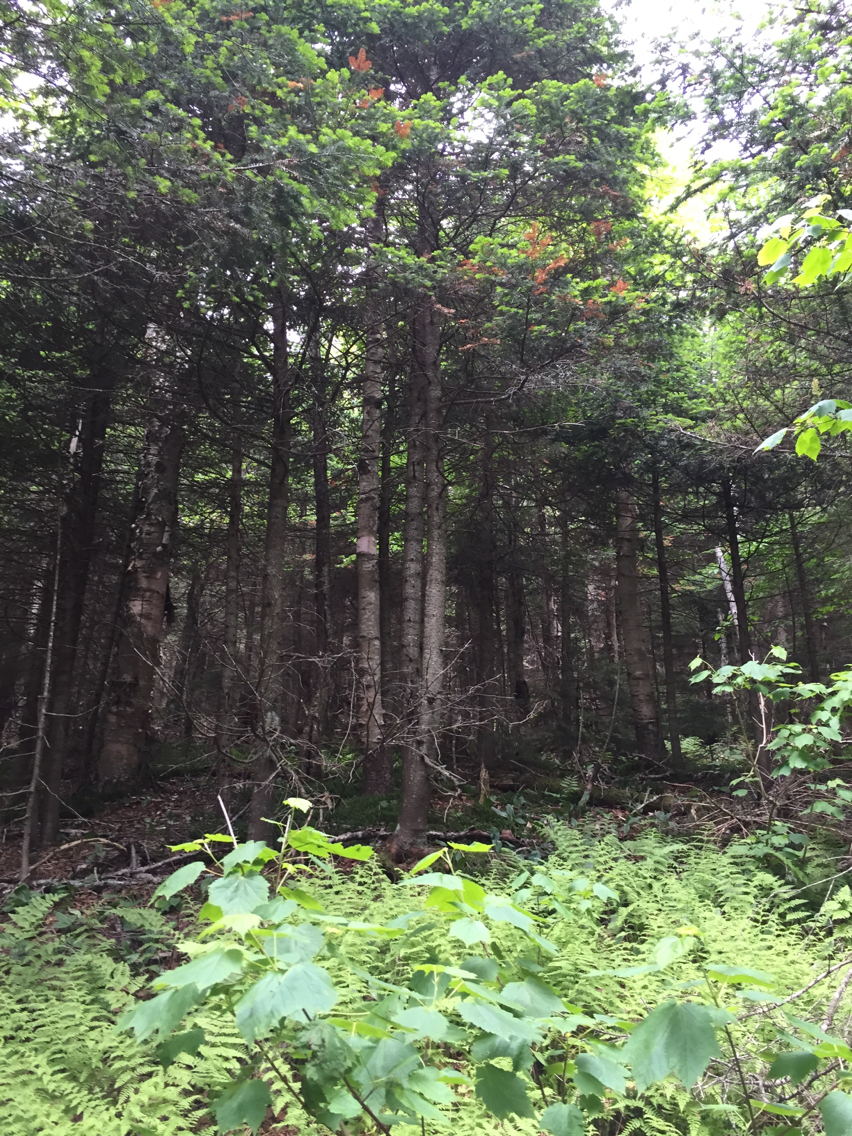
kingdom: Plantae
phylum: Tracheophyta
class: Pinopsida
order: Pinales
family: Pinaceae
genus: Abies
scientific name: Abies balsamea
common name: Balsam fir
